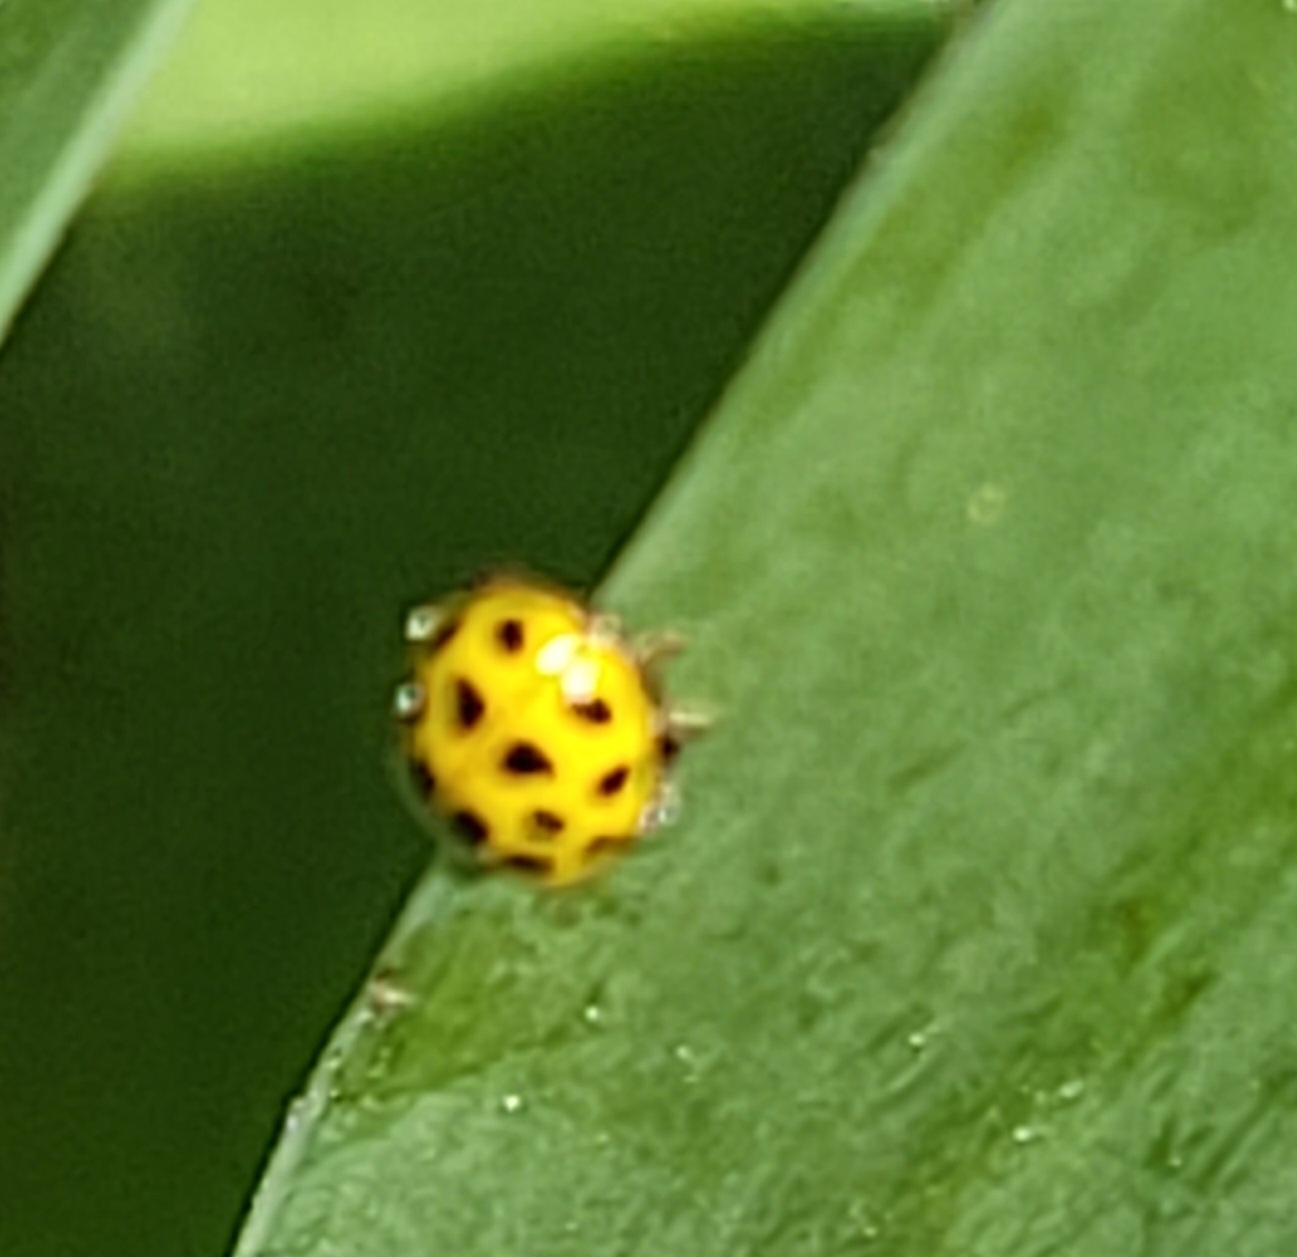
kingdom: Animalia
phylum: Arthropoda
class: Insecta
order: Coleoptera
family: Coccinellidae
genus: Psyllobora
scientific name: Psyllobora vigintiduopunctata
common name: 22-spot ladybird
